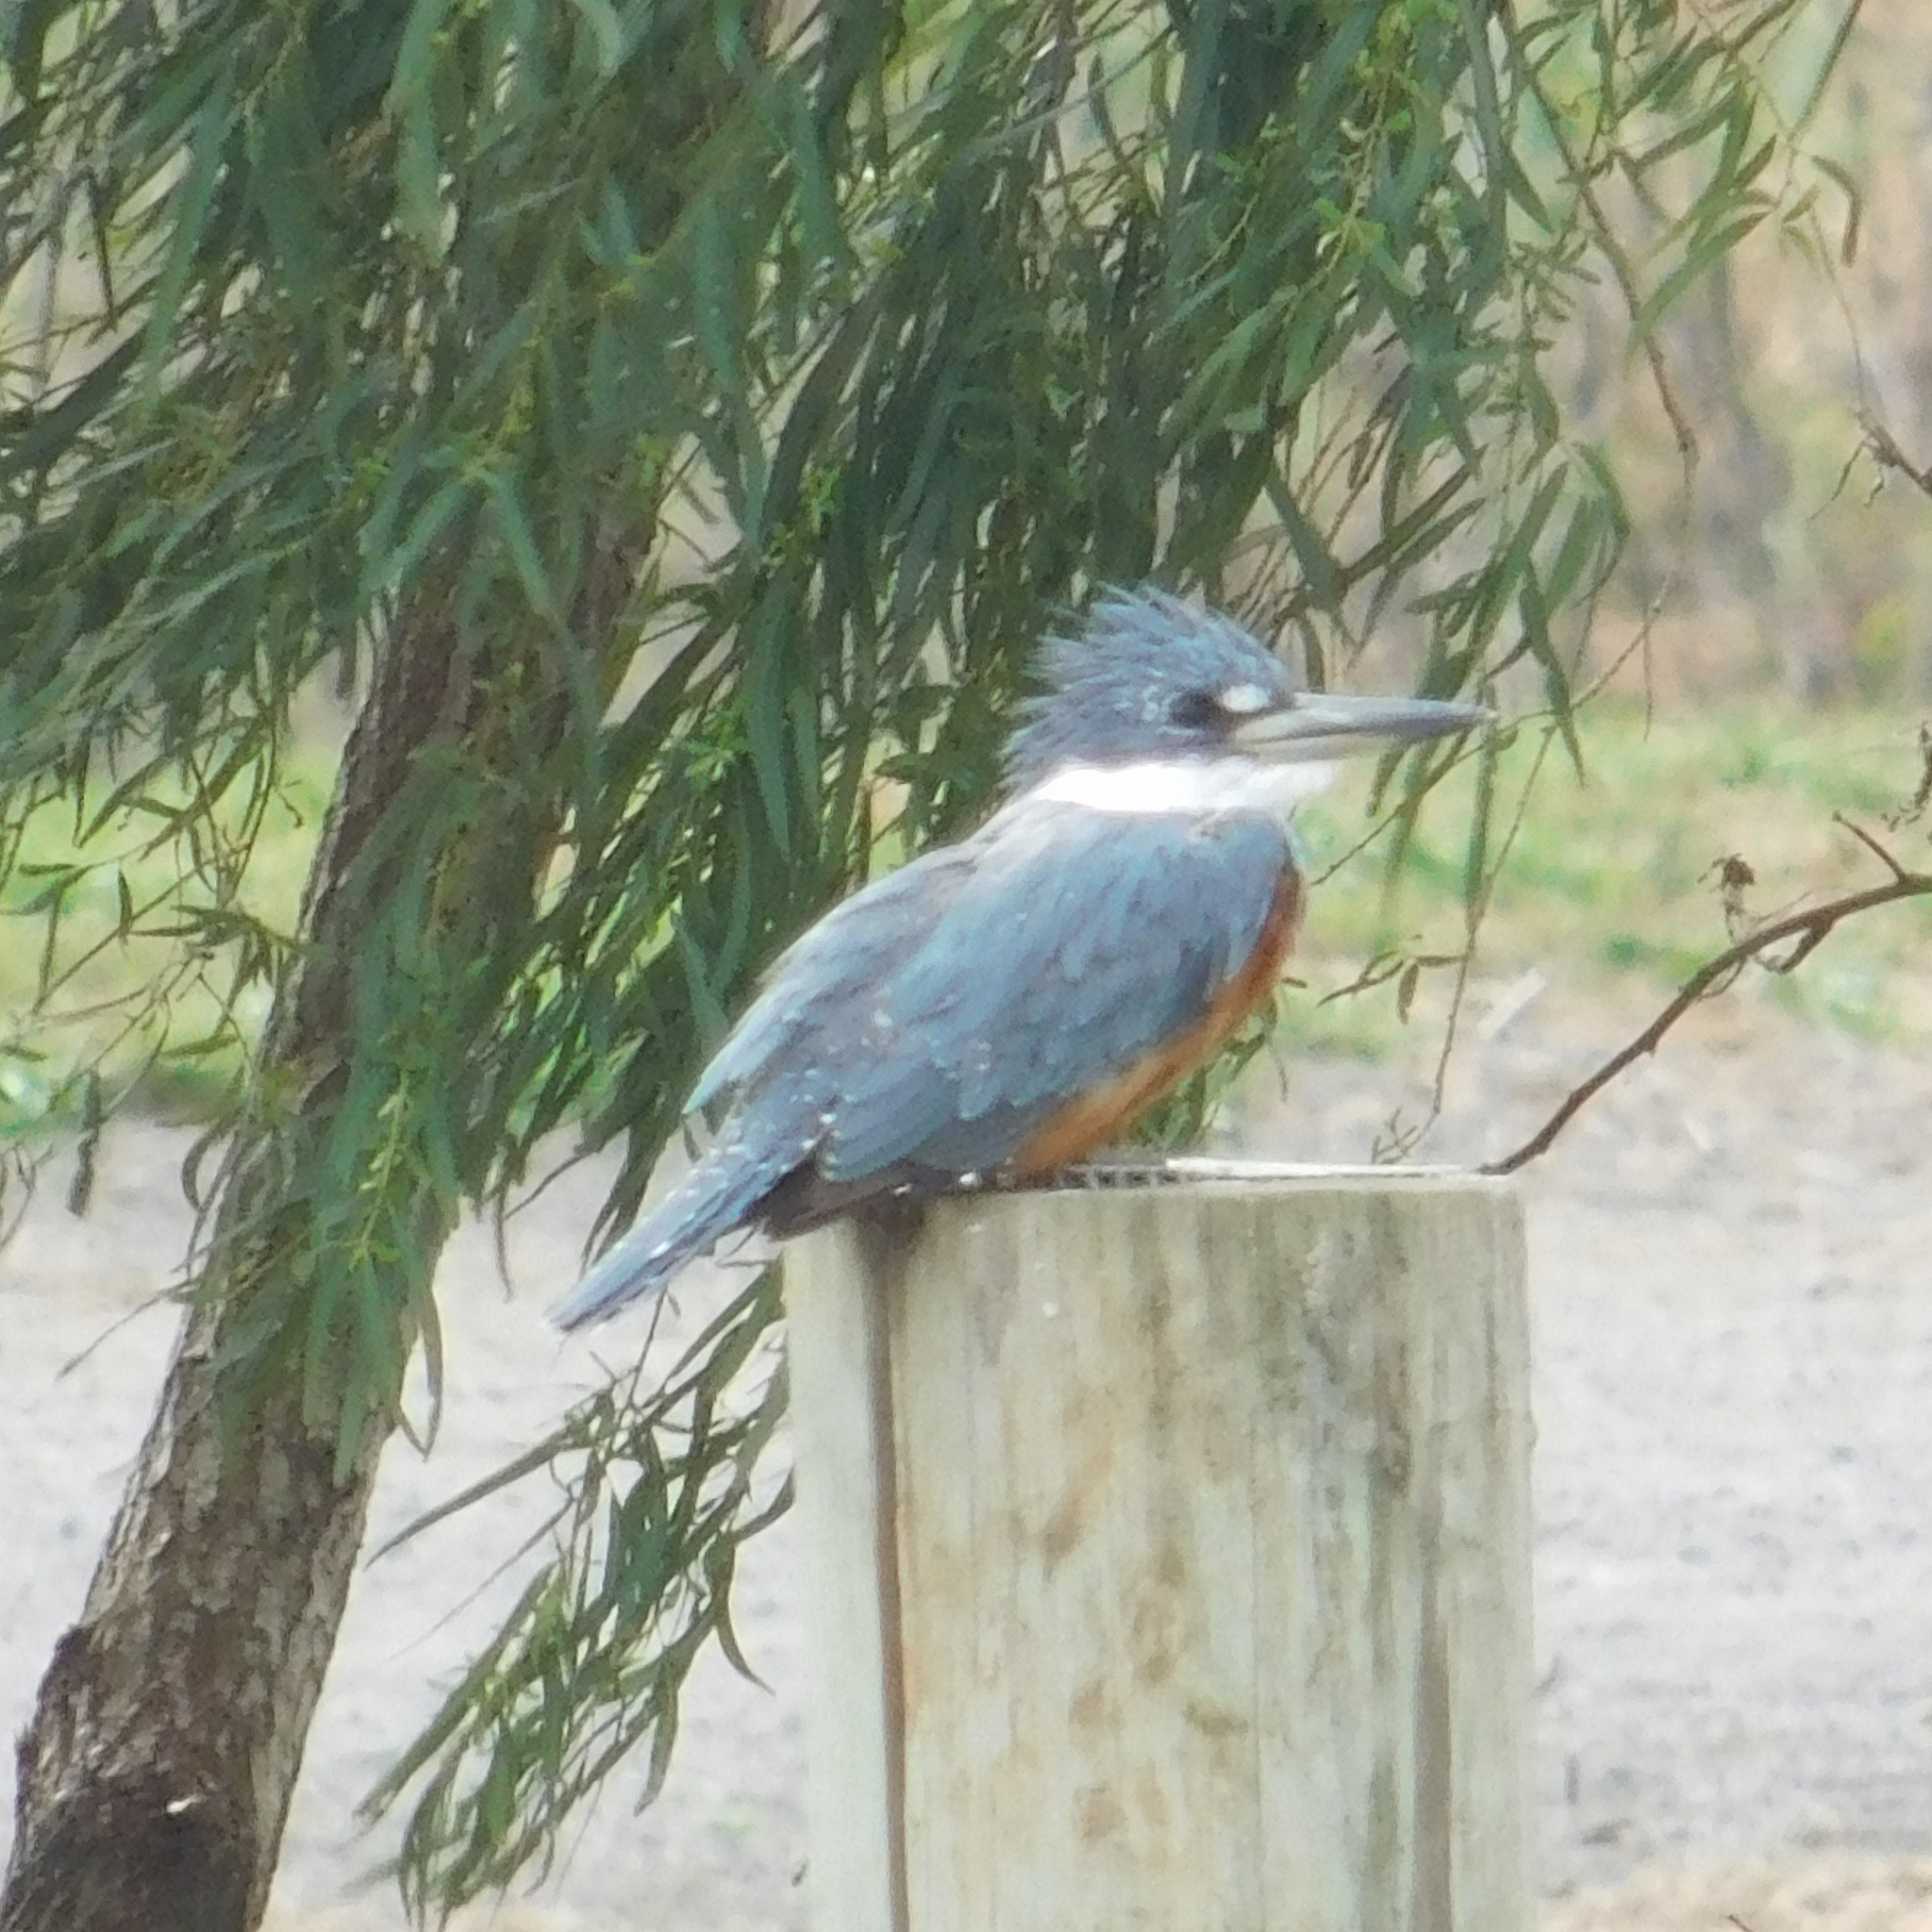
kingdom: Animalia
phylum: Chordata
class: Aves
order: Coraciiformes
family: Alcedinidae
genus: Megaceryle
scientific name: Megaceryle torquata
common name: Ringed kingfisher
